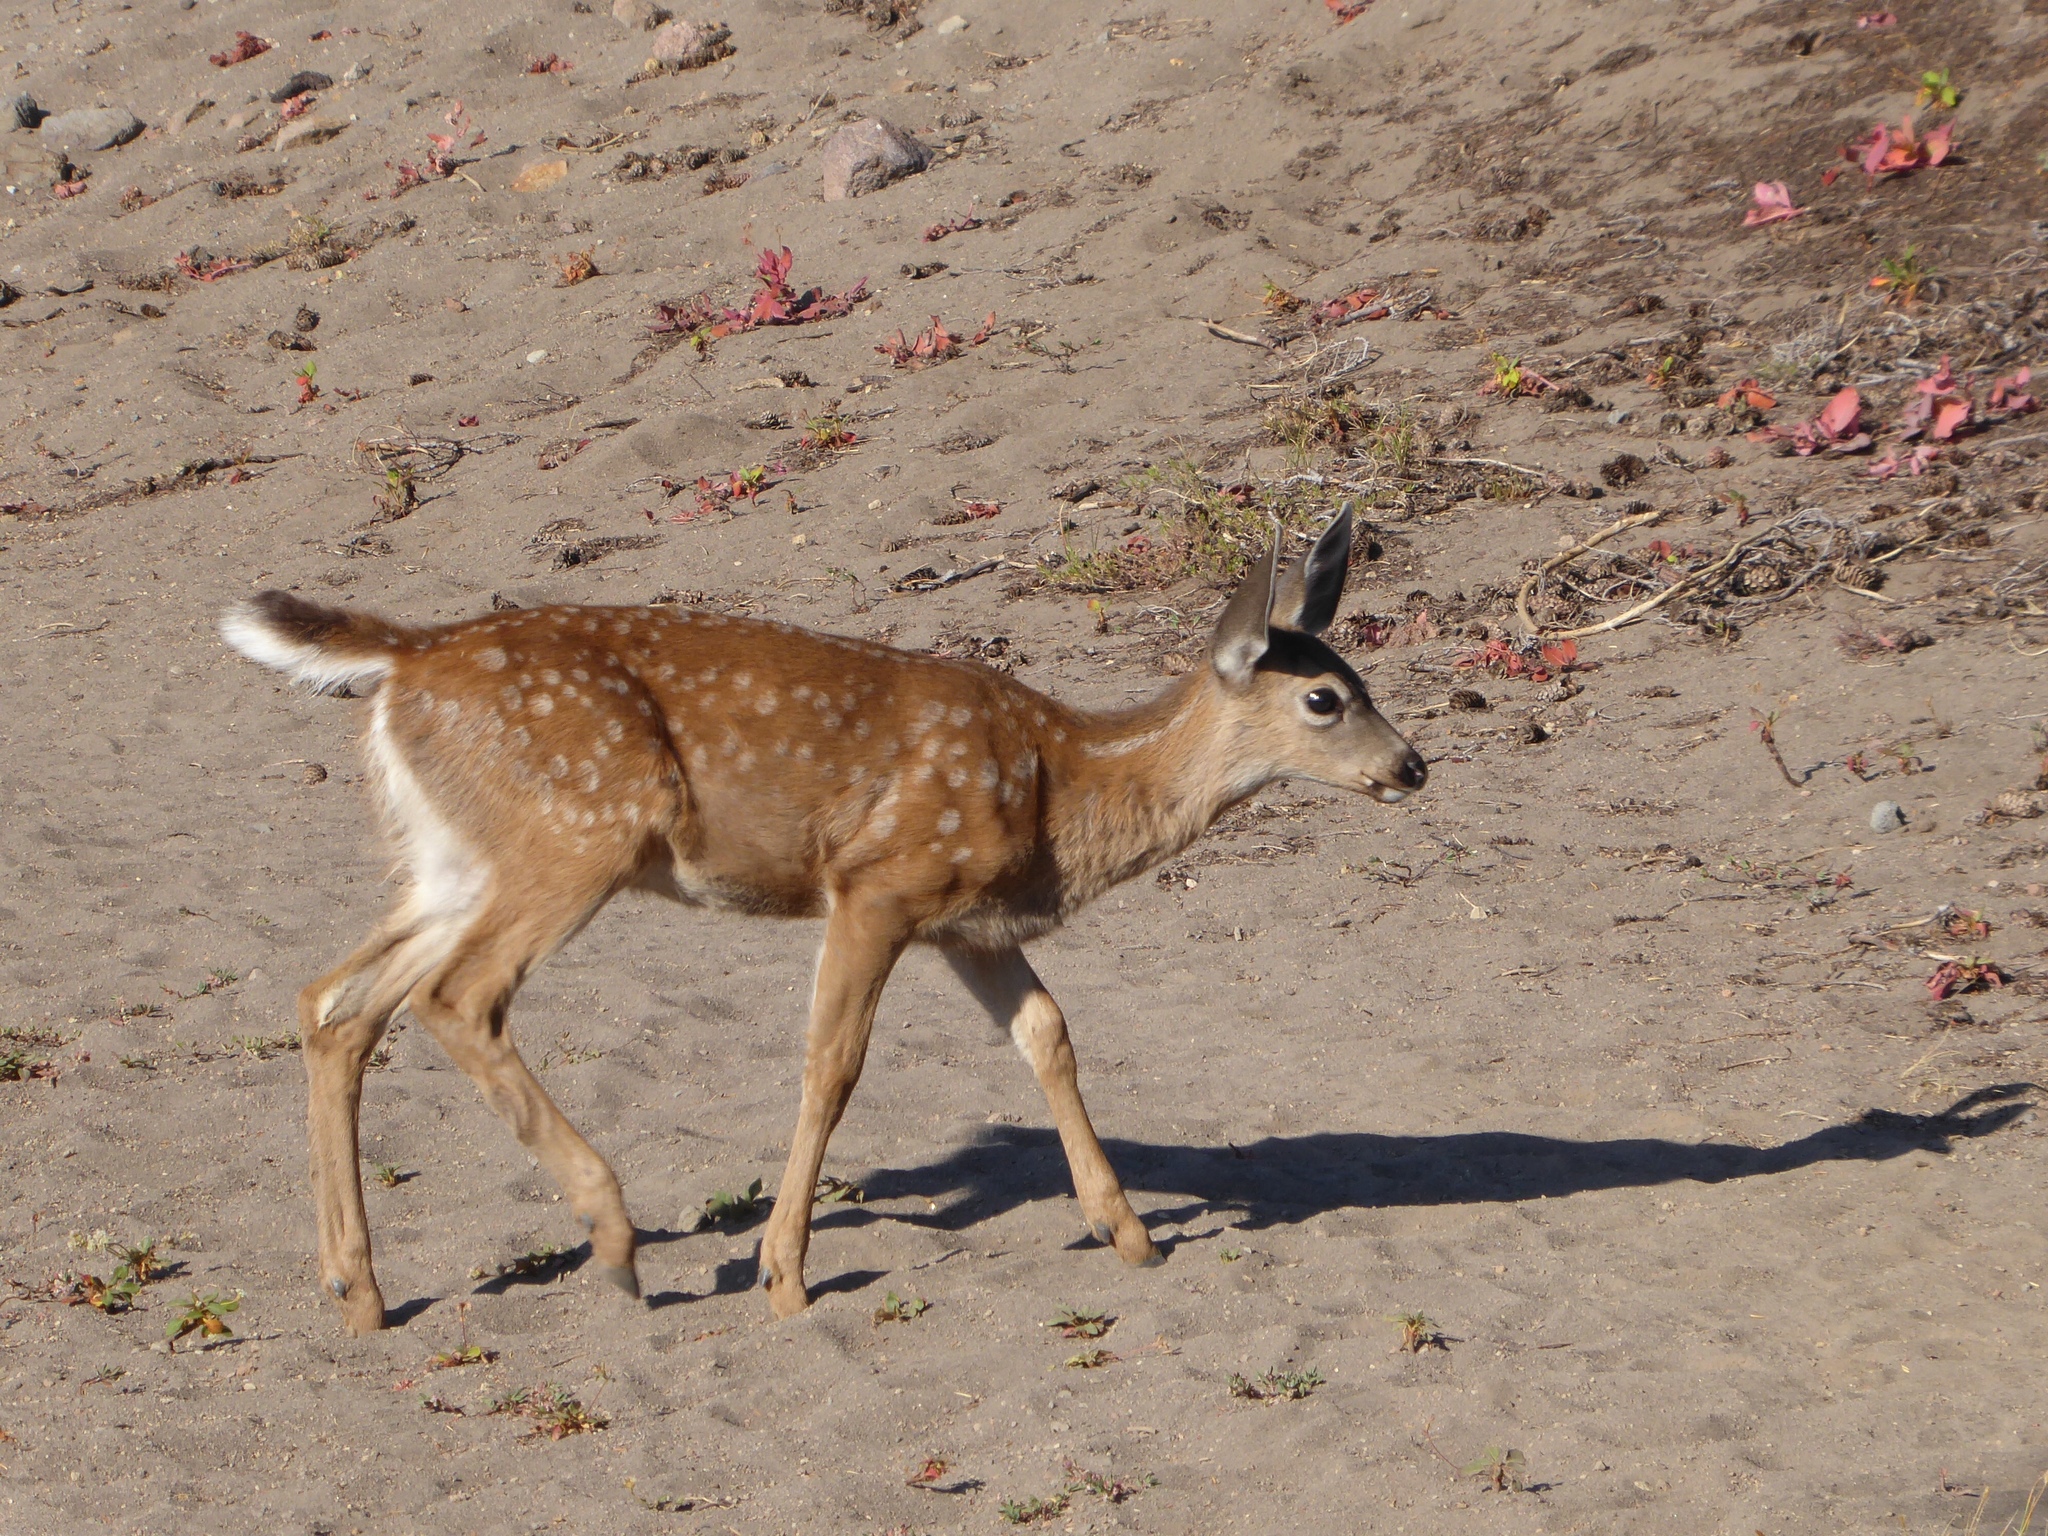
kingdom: Animalia
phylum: Chordata
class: Mammalia
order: Artiodactyla
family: Cervidae
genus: Odocoileus
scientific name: Odocoileus hemionus
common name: Mule deer
